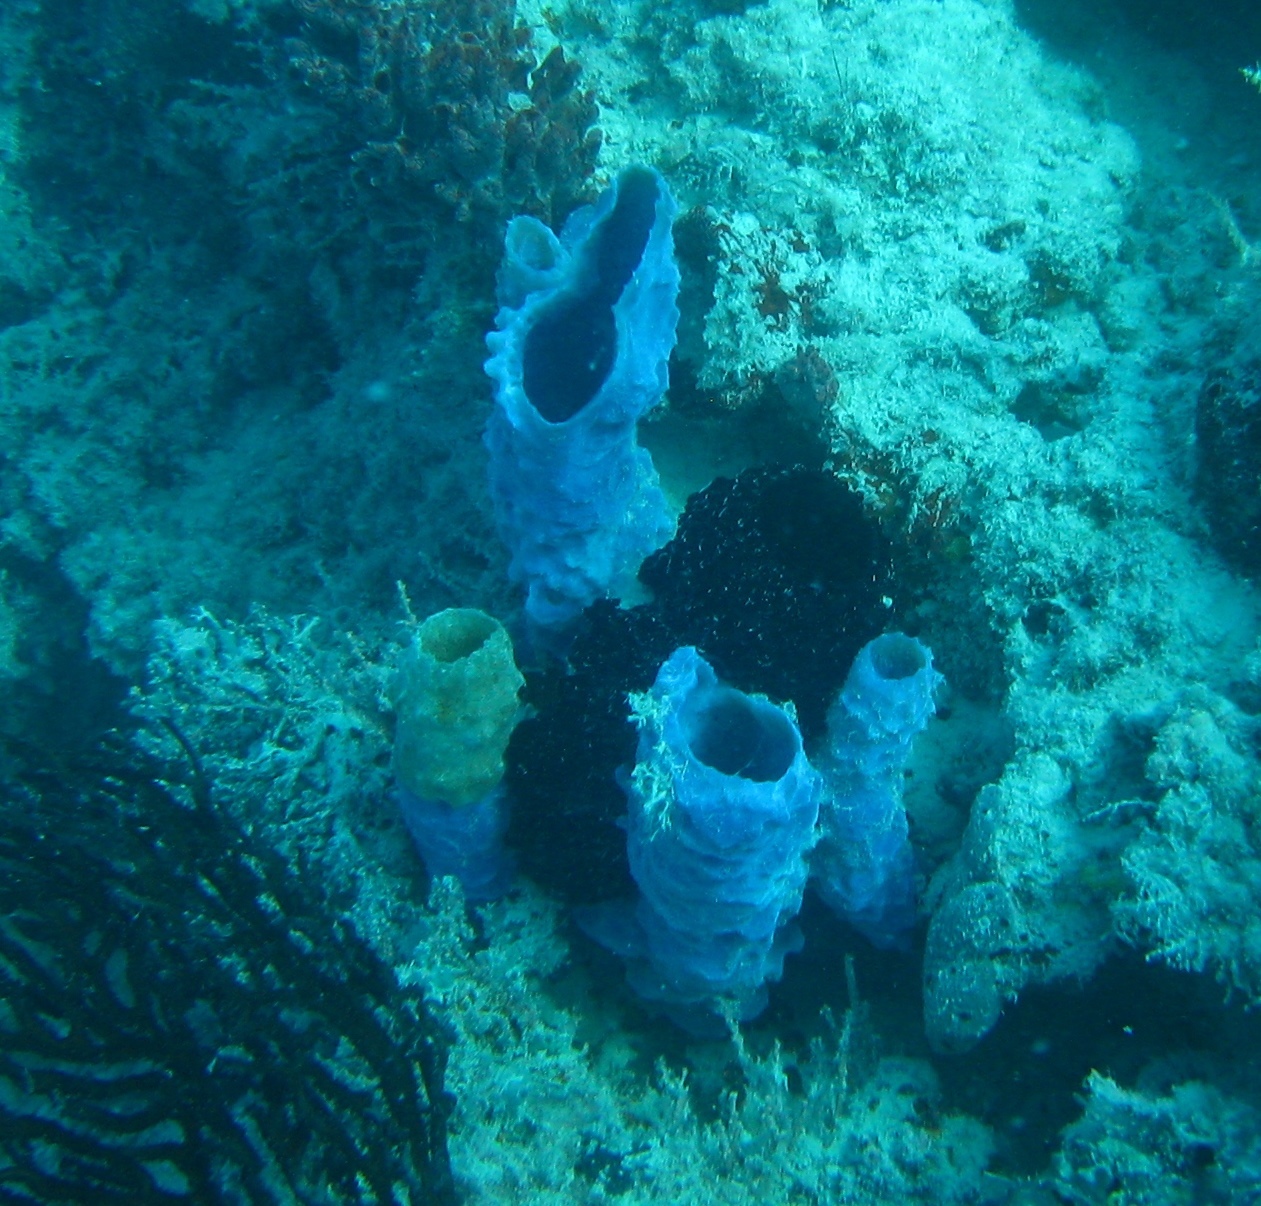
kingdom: Animalia
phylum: Porifera
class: Demospongiae
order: Haplosclerida
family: Callyspongiidae
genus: Callyspongia
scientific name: Callyspongia aculeata
